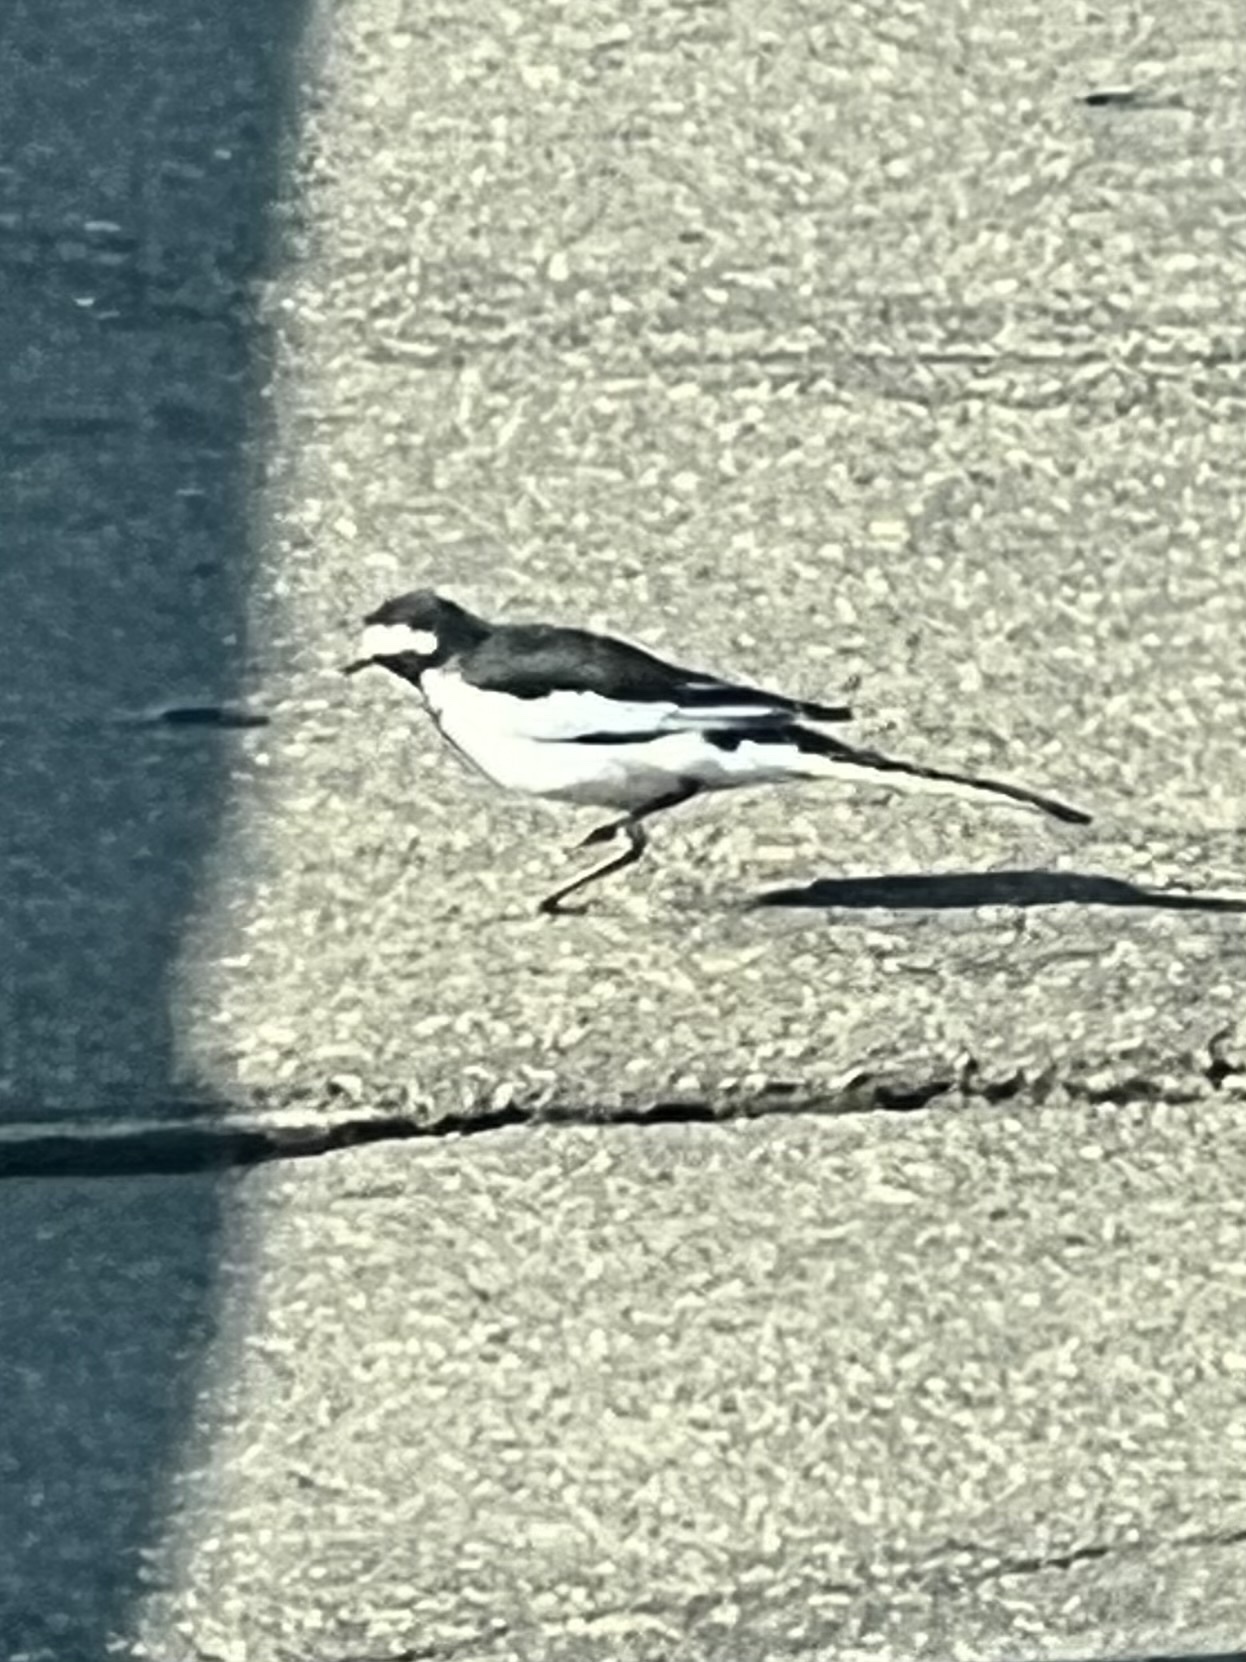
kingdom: Animalia
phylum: Chordata
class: Aves
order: Passeriformes
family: Motacillidae
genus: Motacilla
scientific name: Motacilla aguimp
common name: African pied wagtail
